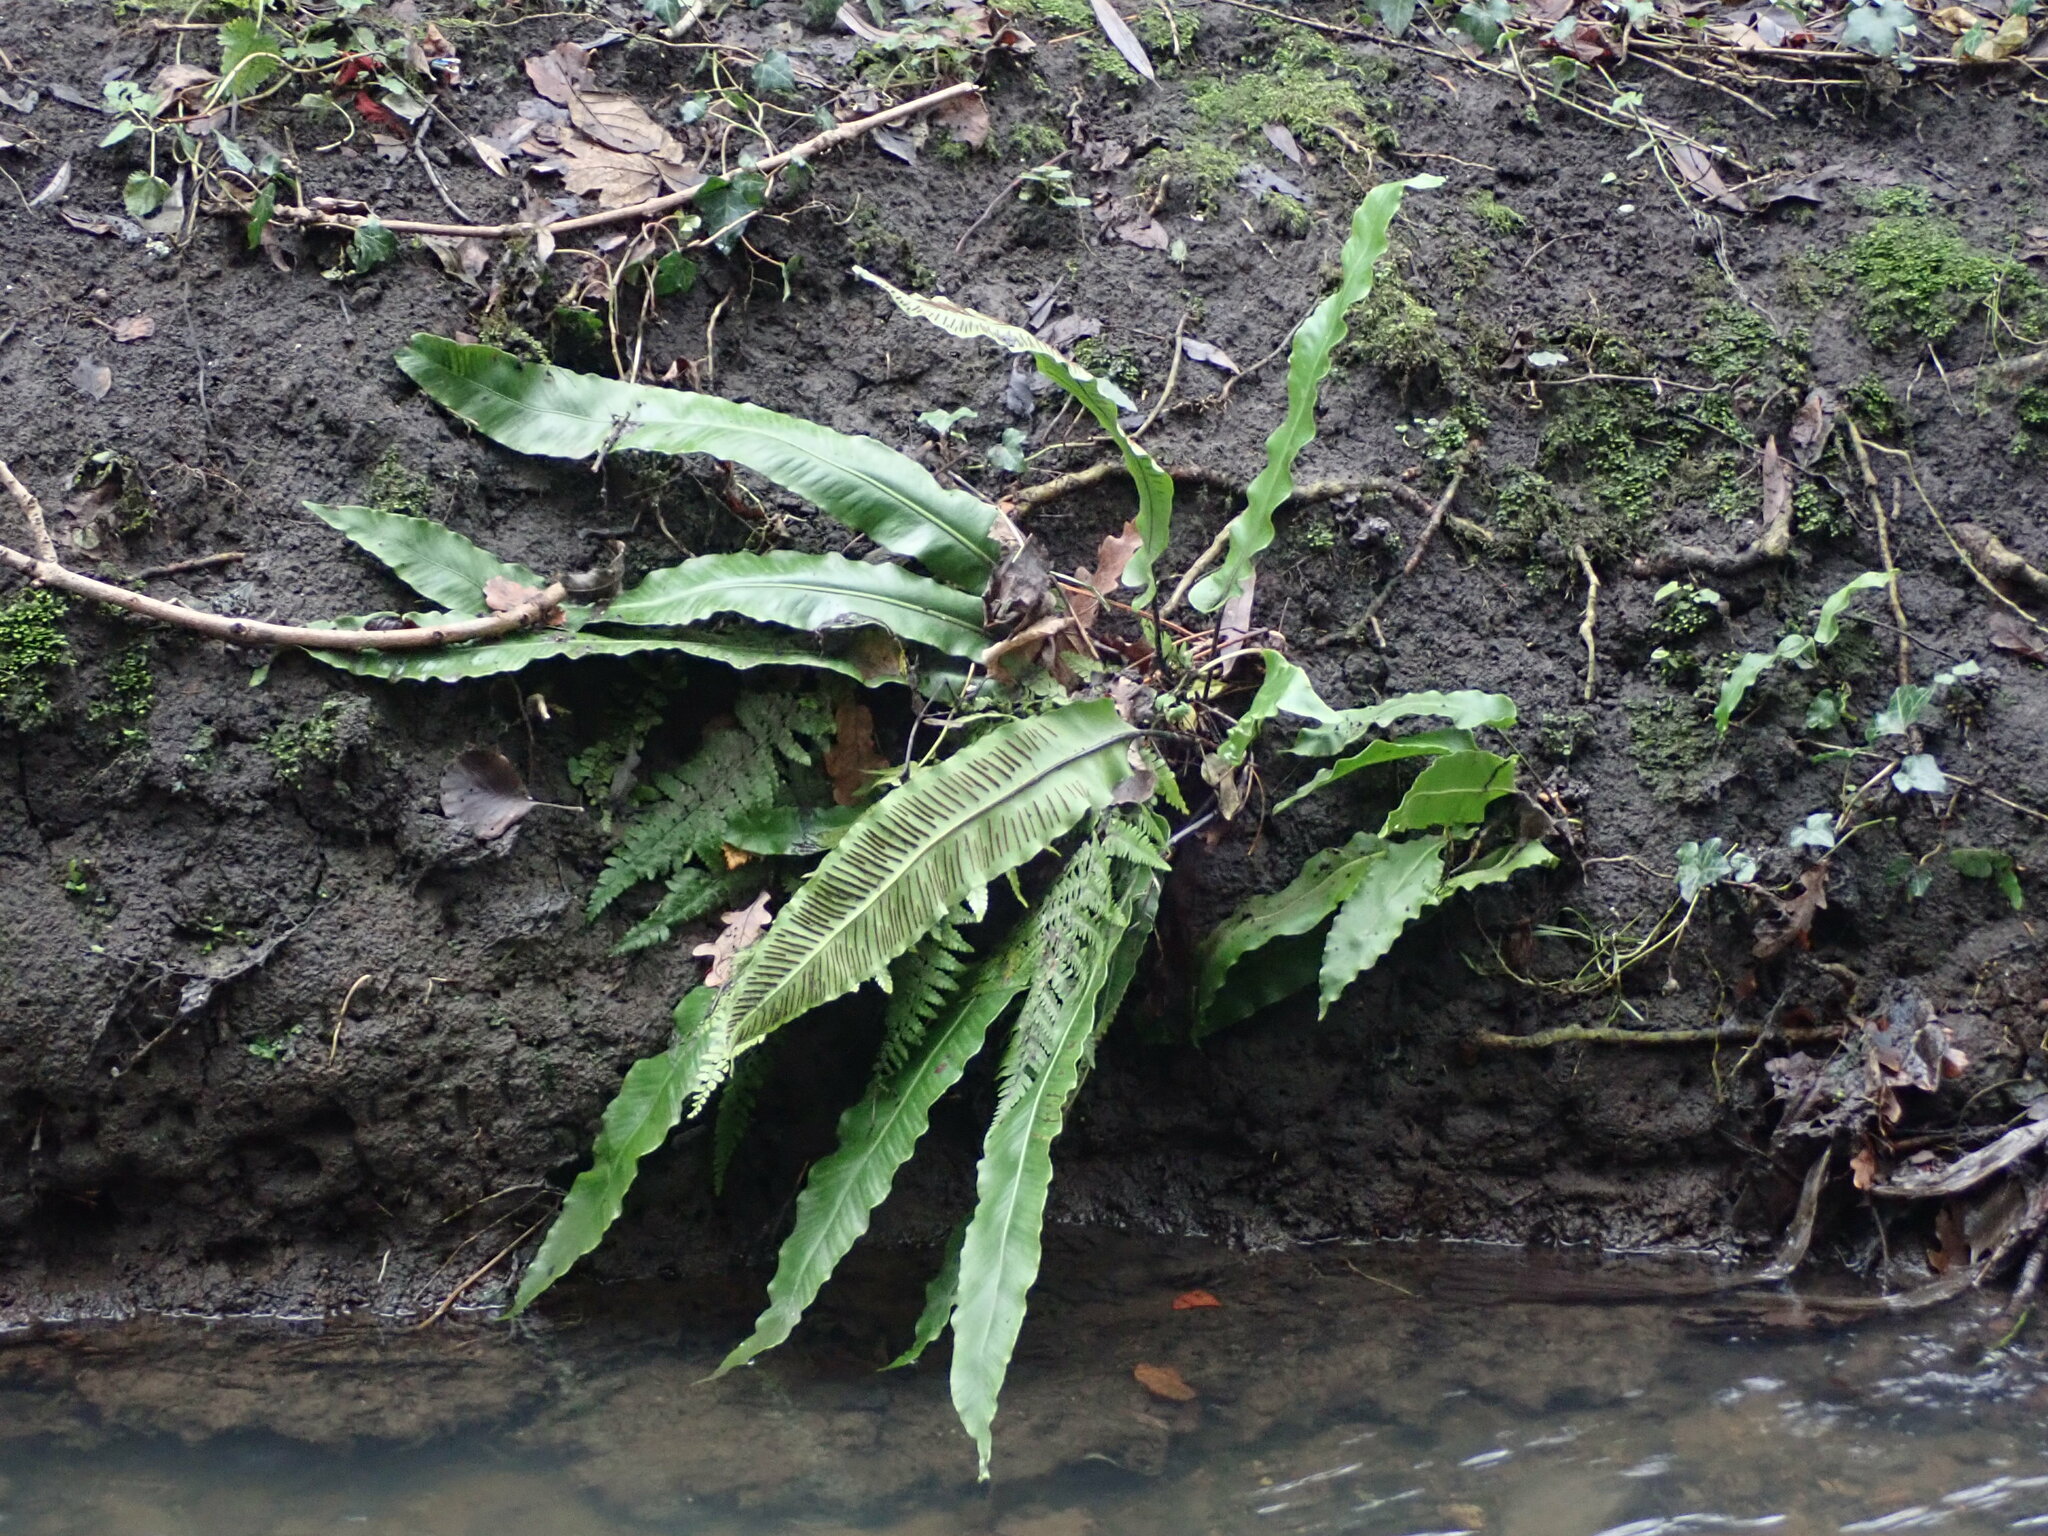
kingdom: Plantae
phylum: Tracheophyta
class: Polypodiopsida
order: Polypodiales
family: Aspleniaceae
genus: Asplenium
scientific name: Asplenium scolopendrium
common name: Hart's-tongue fern
